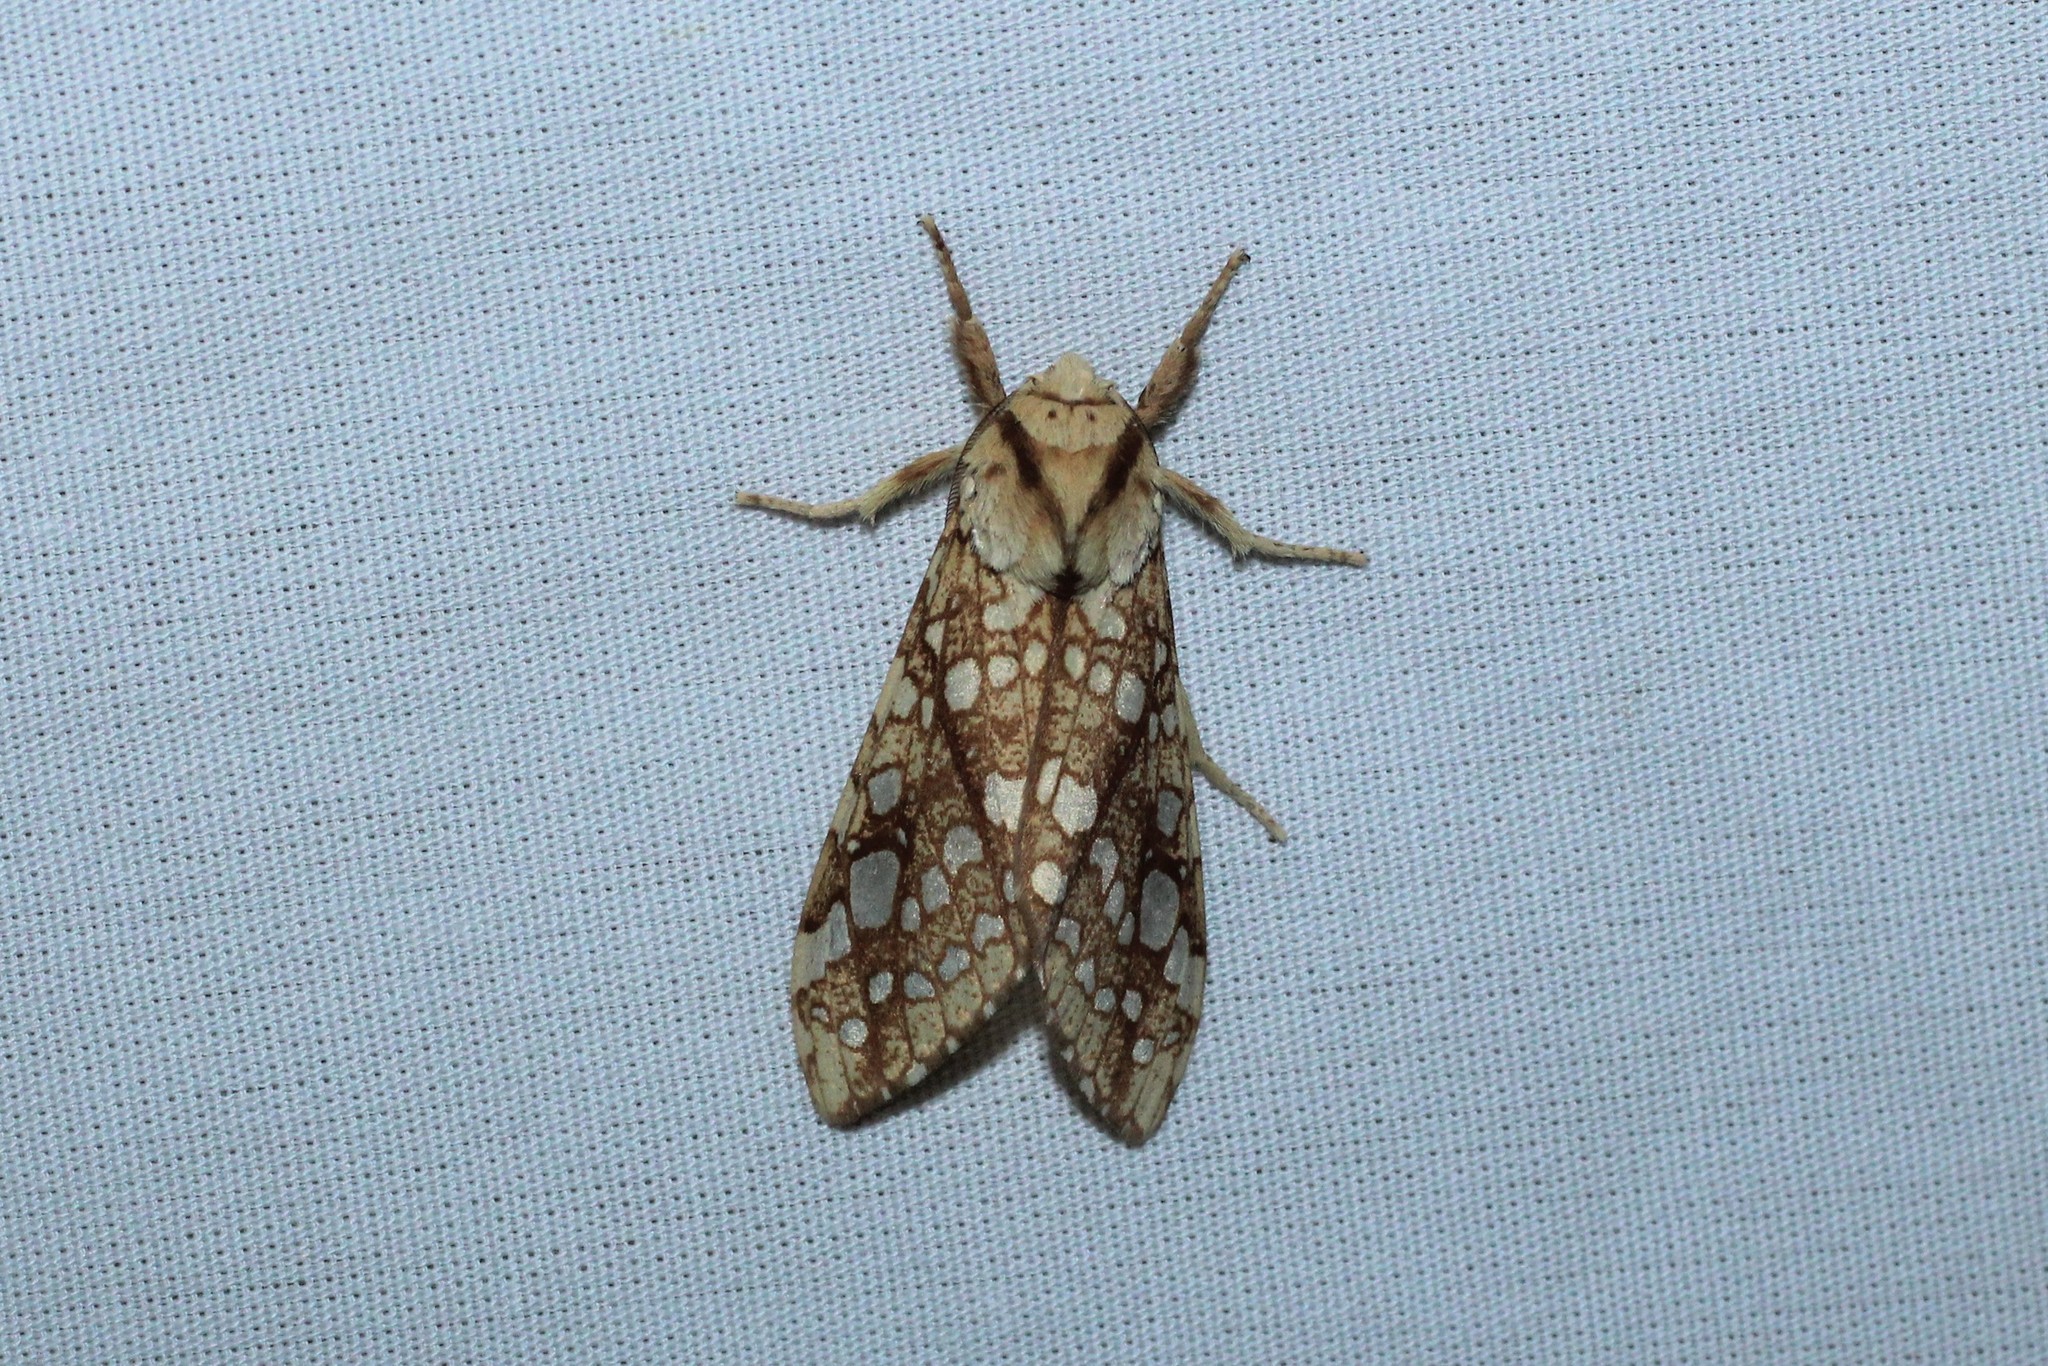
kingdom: Animalia
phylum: Arthropoda
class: Insecta
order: Lepidoptera
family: Erebidae
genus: Lophocampa
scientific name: Lophocampa caryae
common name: Hickory tussock moth
